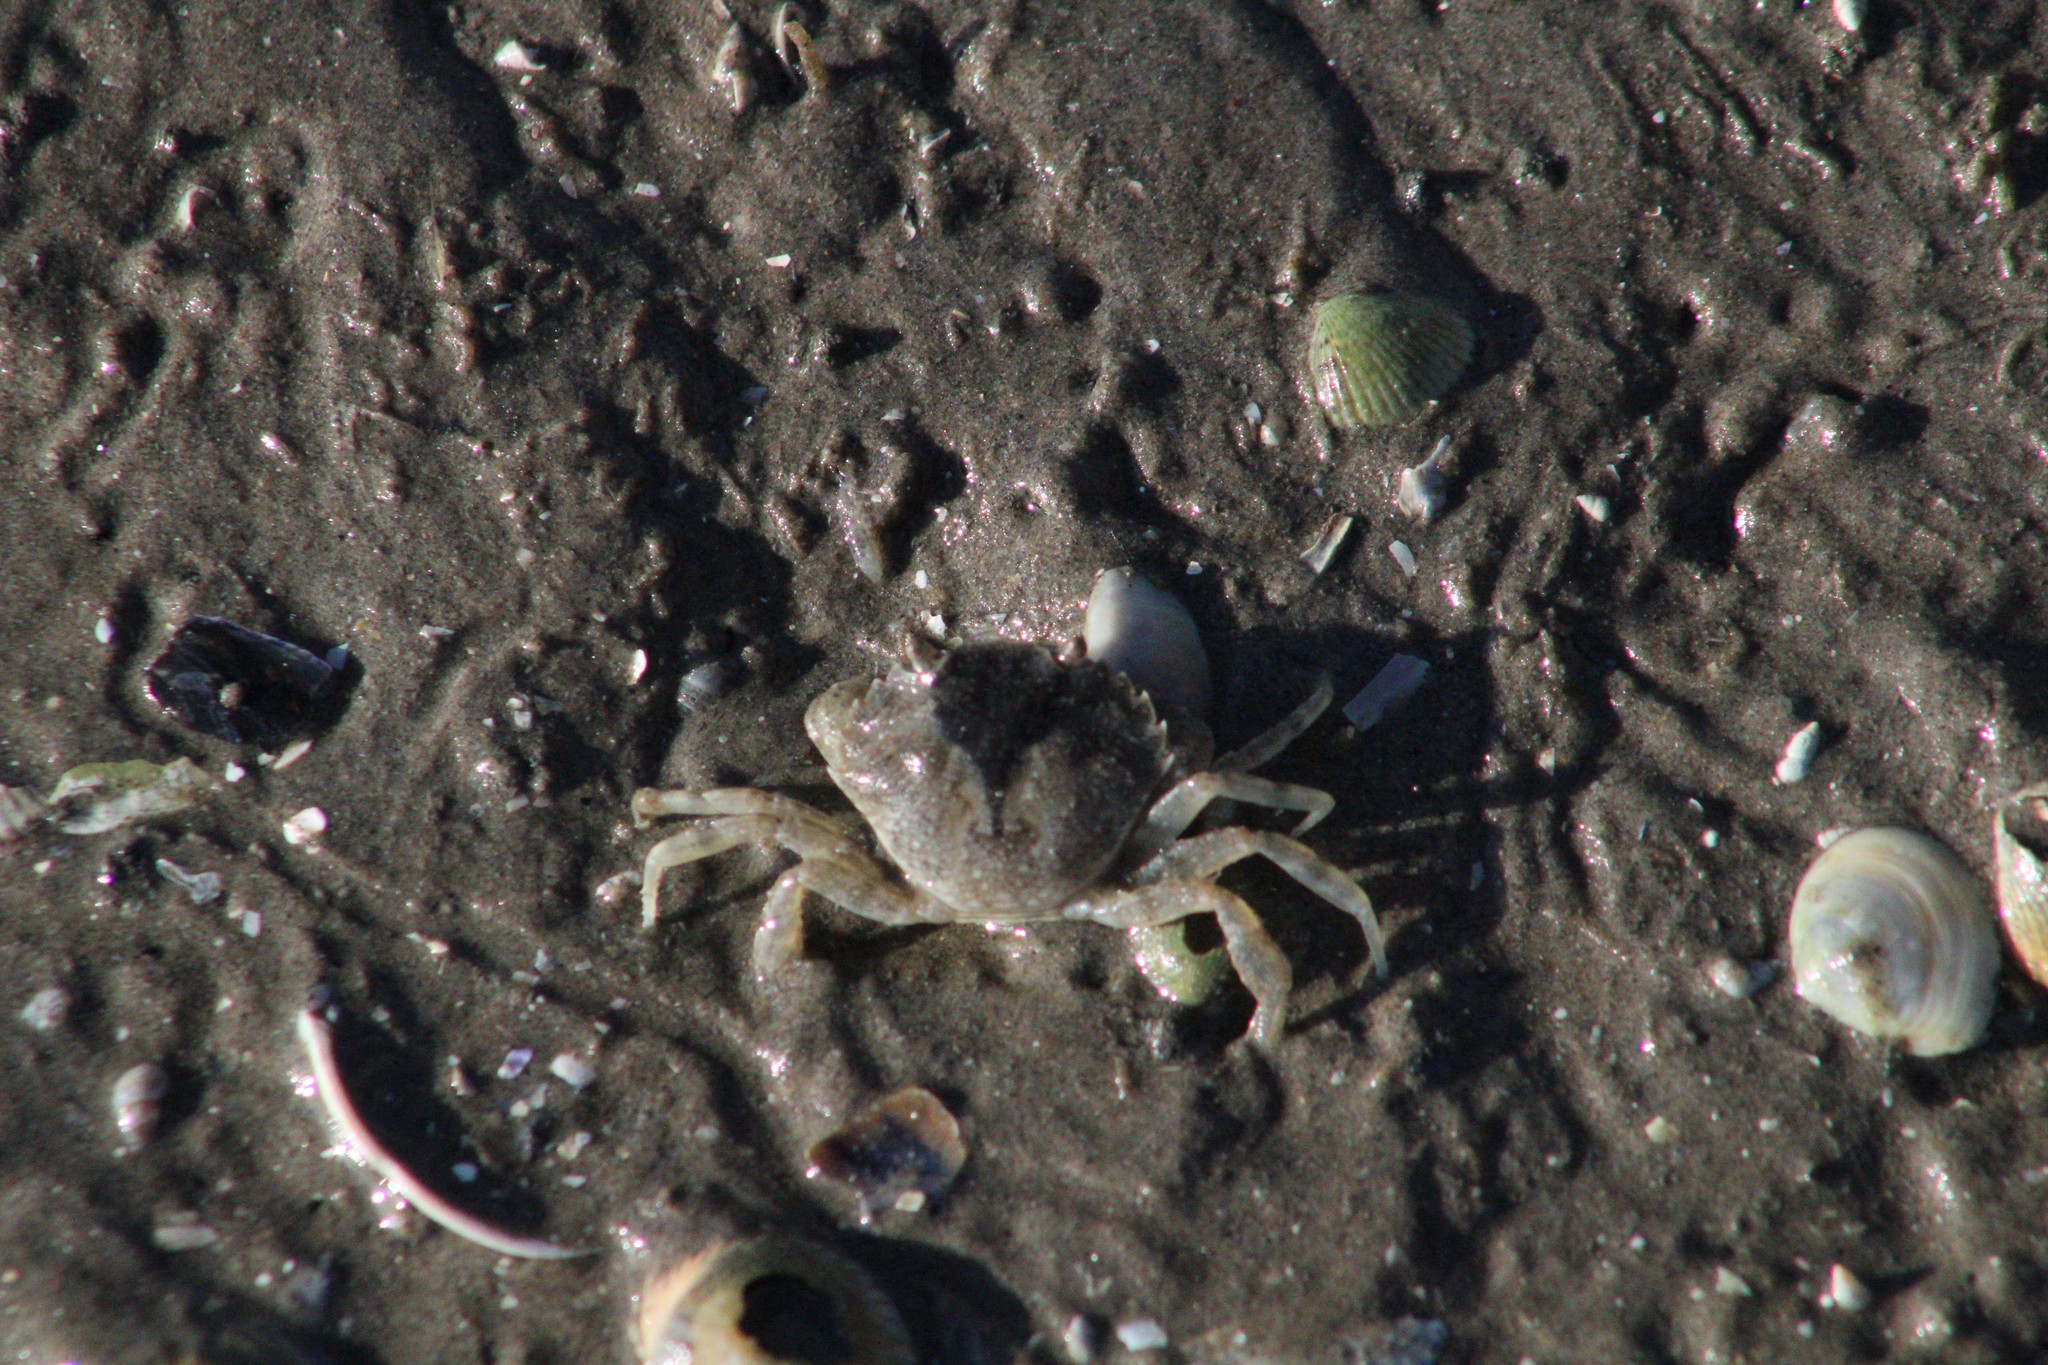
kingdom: Animalia
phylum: Arthropoda
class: Malacostraca
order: Decapoda
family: Carcinidae
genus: Carcinus
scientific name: Carcinus maenas
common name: European green crab
